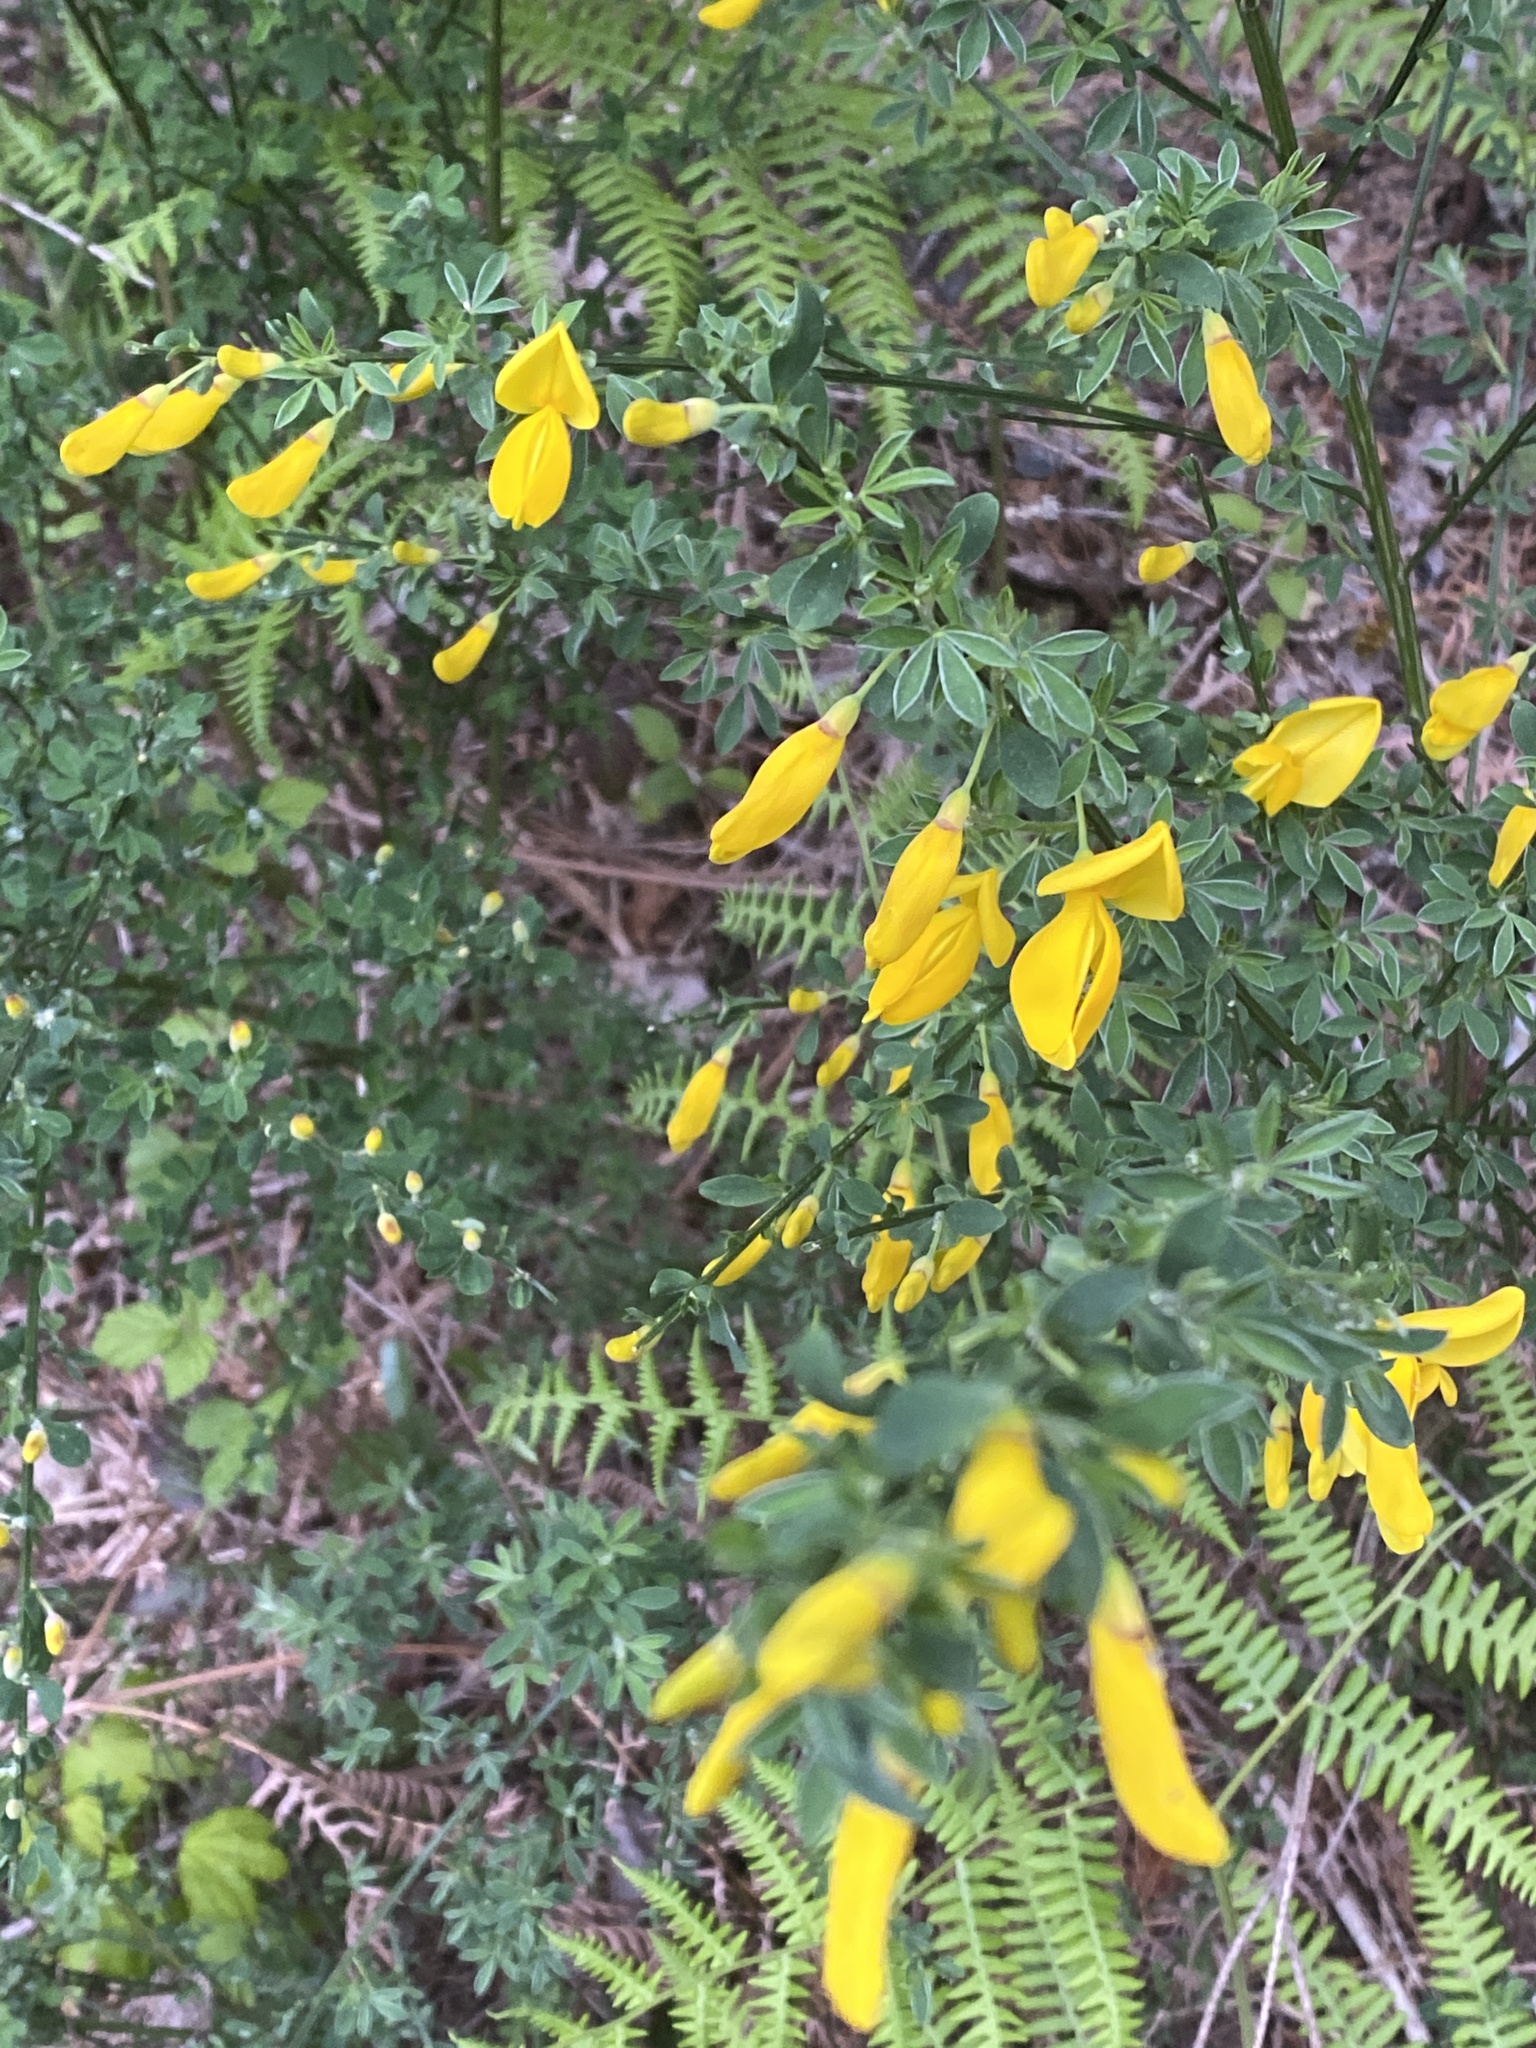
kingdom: Plantae
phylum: Tracheophyta
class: Magnoliopsida
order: Fabales
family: Fabaceae
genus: Cytisus
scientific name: Cytisus scoparius
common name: Scotch broom
